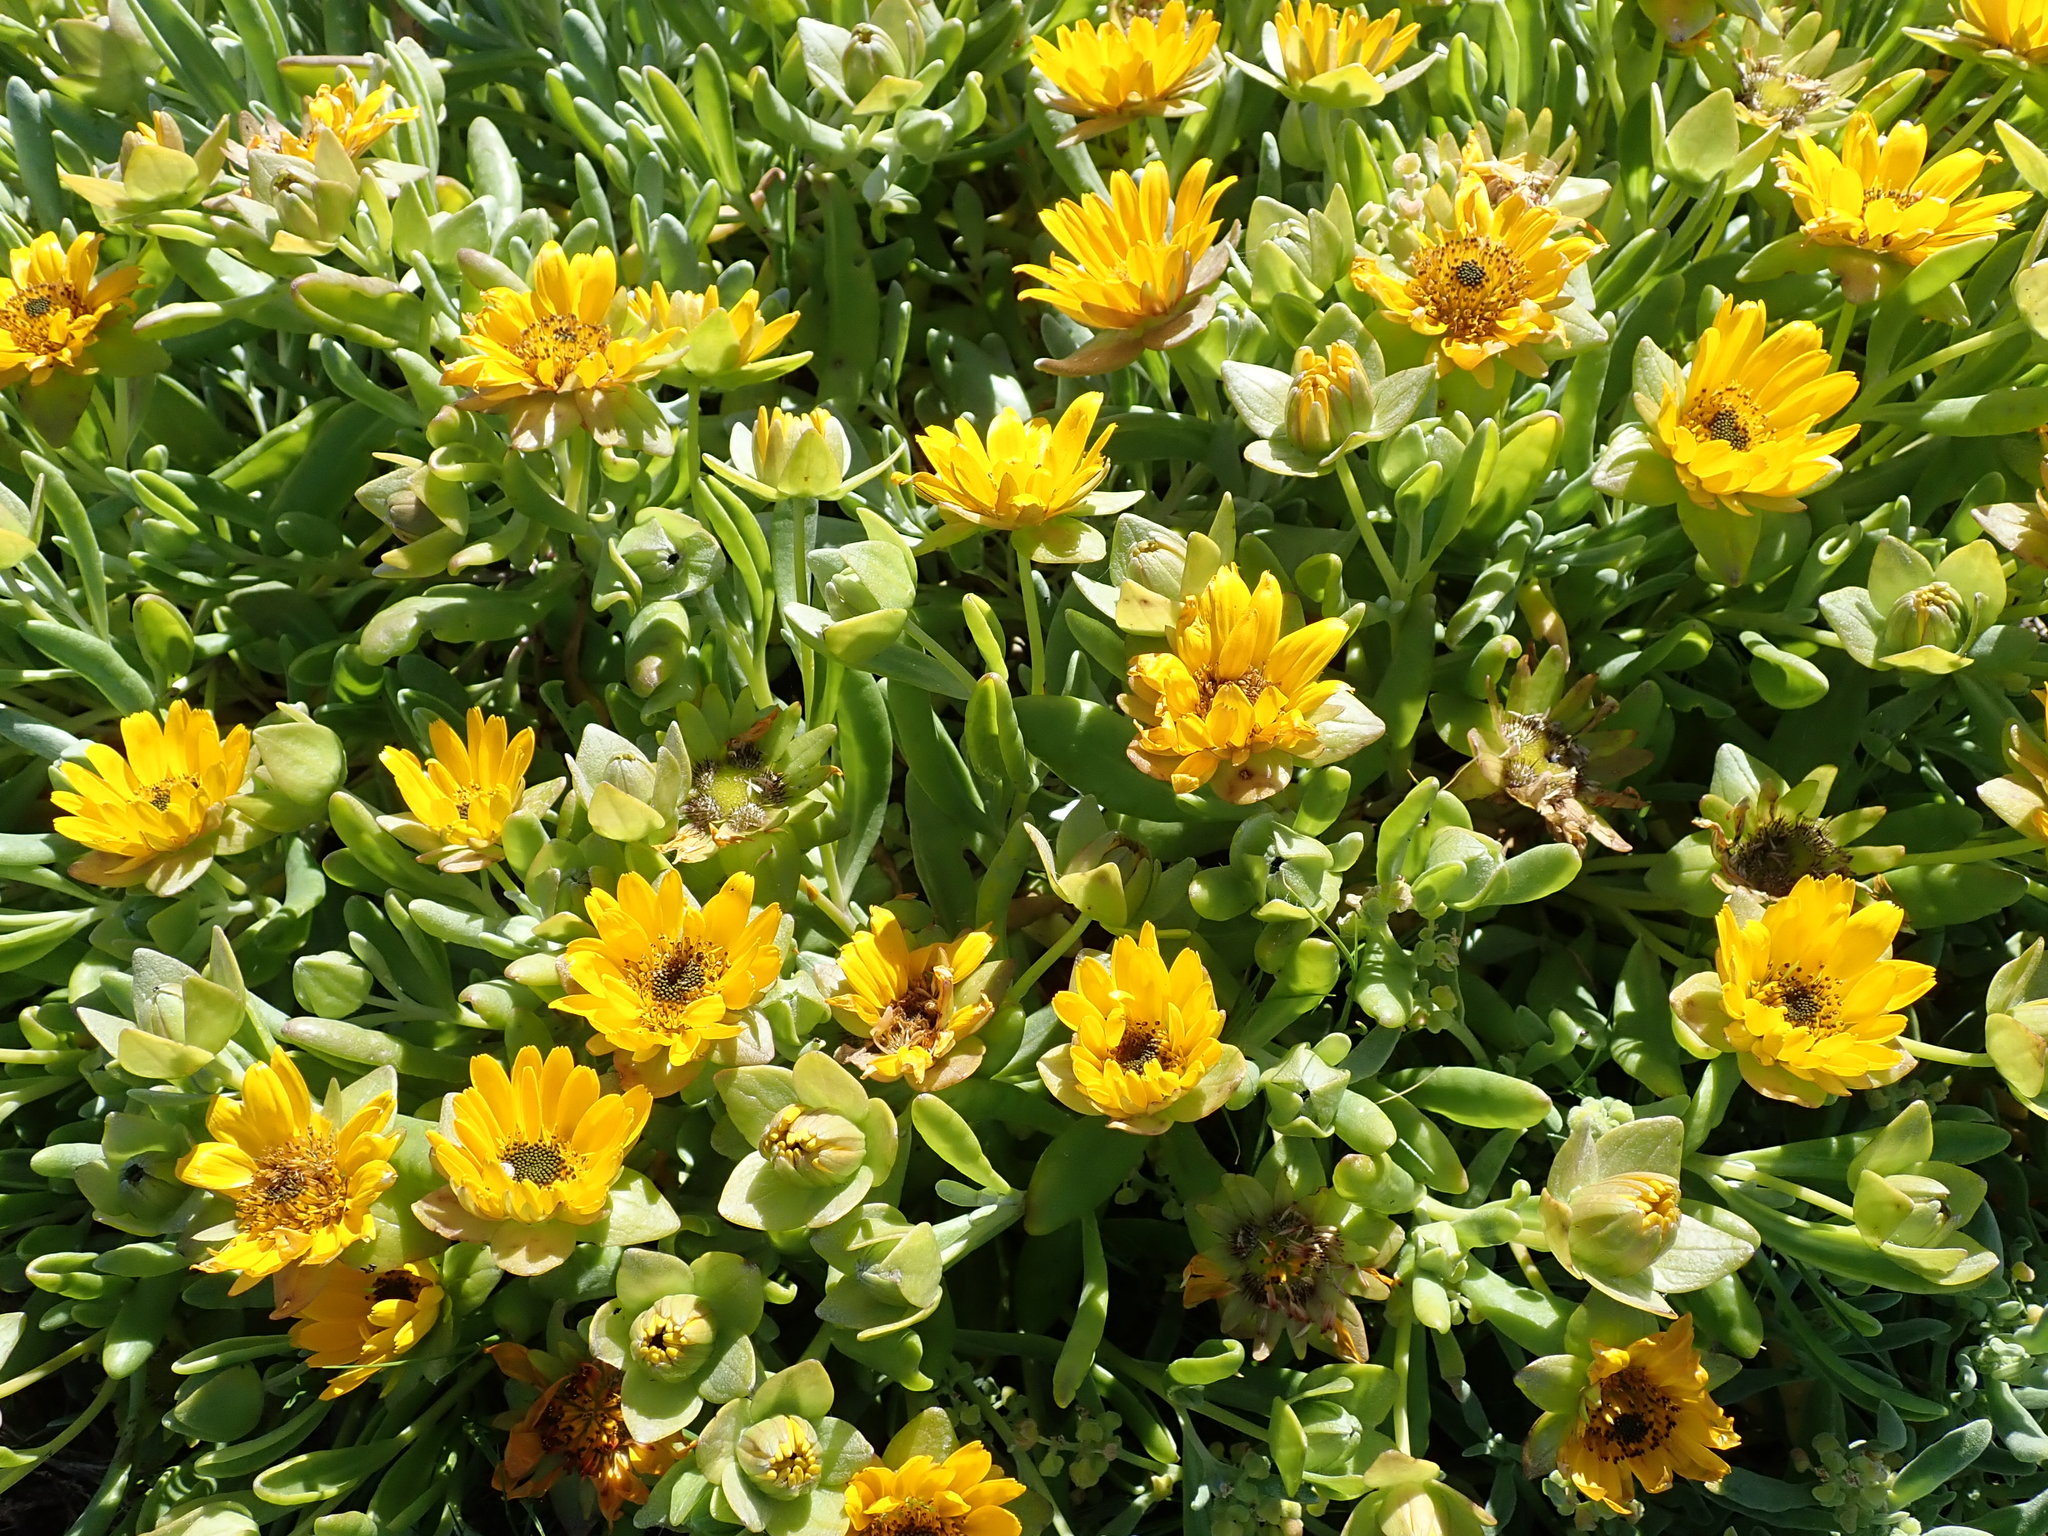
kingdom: Plantae
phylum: Tracheophyta
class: Magnoliopsida
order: Asterales
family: Asteraceae
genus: Didelta
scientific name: Didelta carnosa
